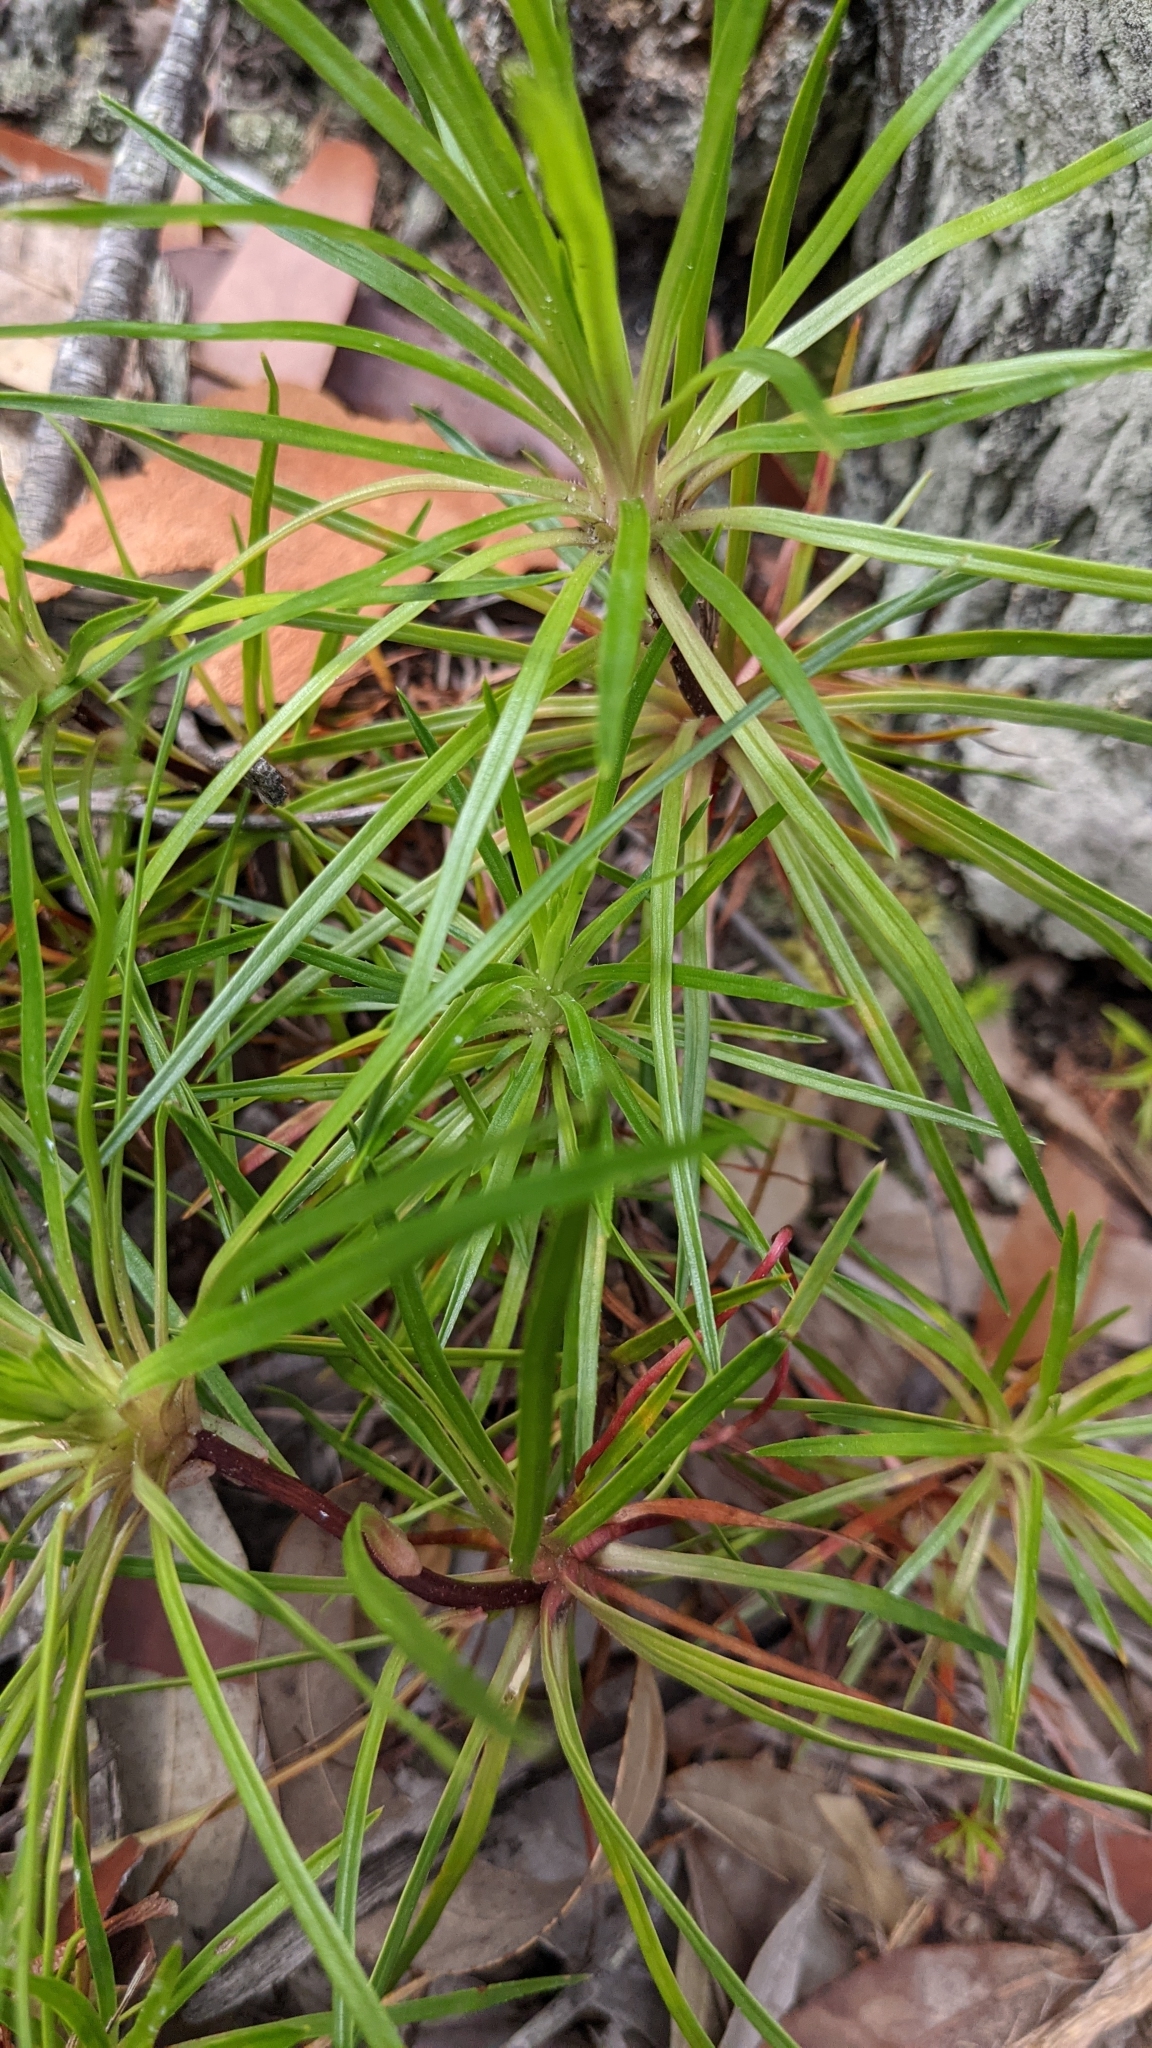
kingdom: Plantae
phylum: Tracheophyta
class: Magnoliopsida
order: Asterales
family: Stylidiaceae
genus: Stylidium
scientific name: Stylidium graminifolium
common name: Grass triggerplant
